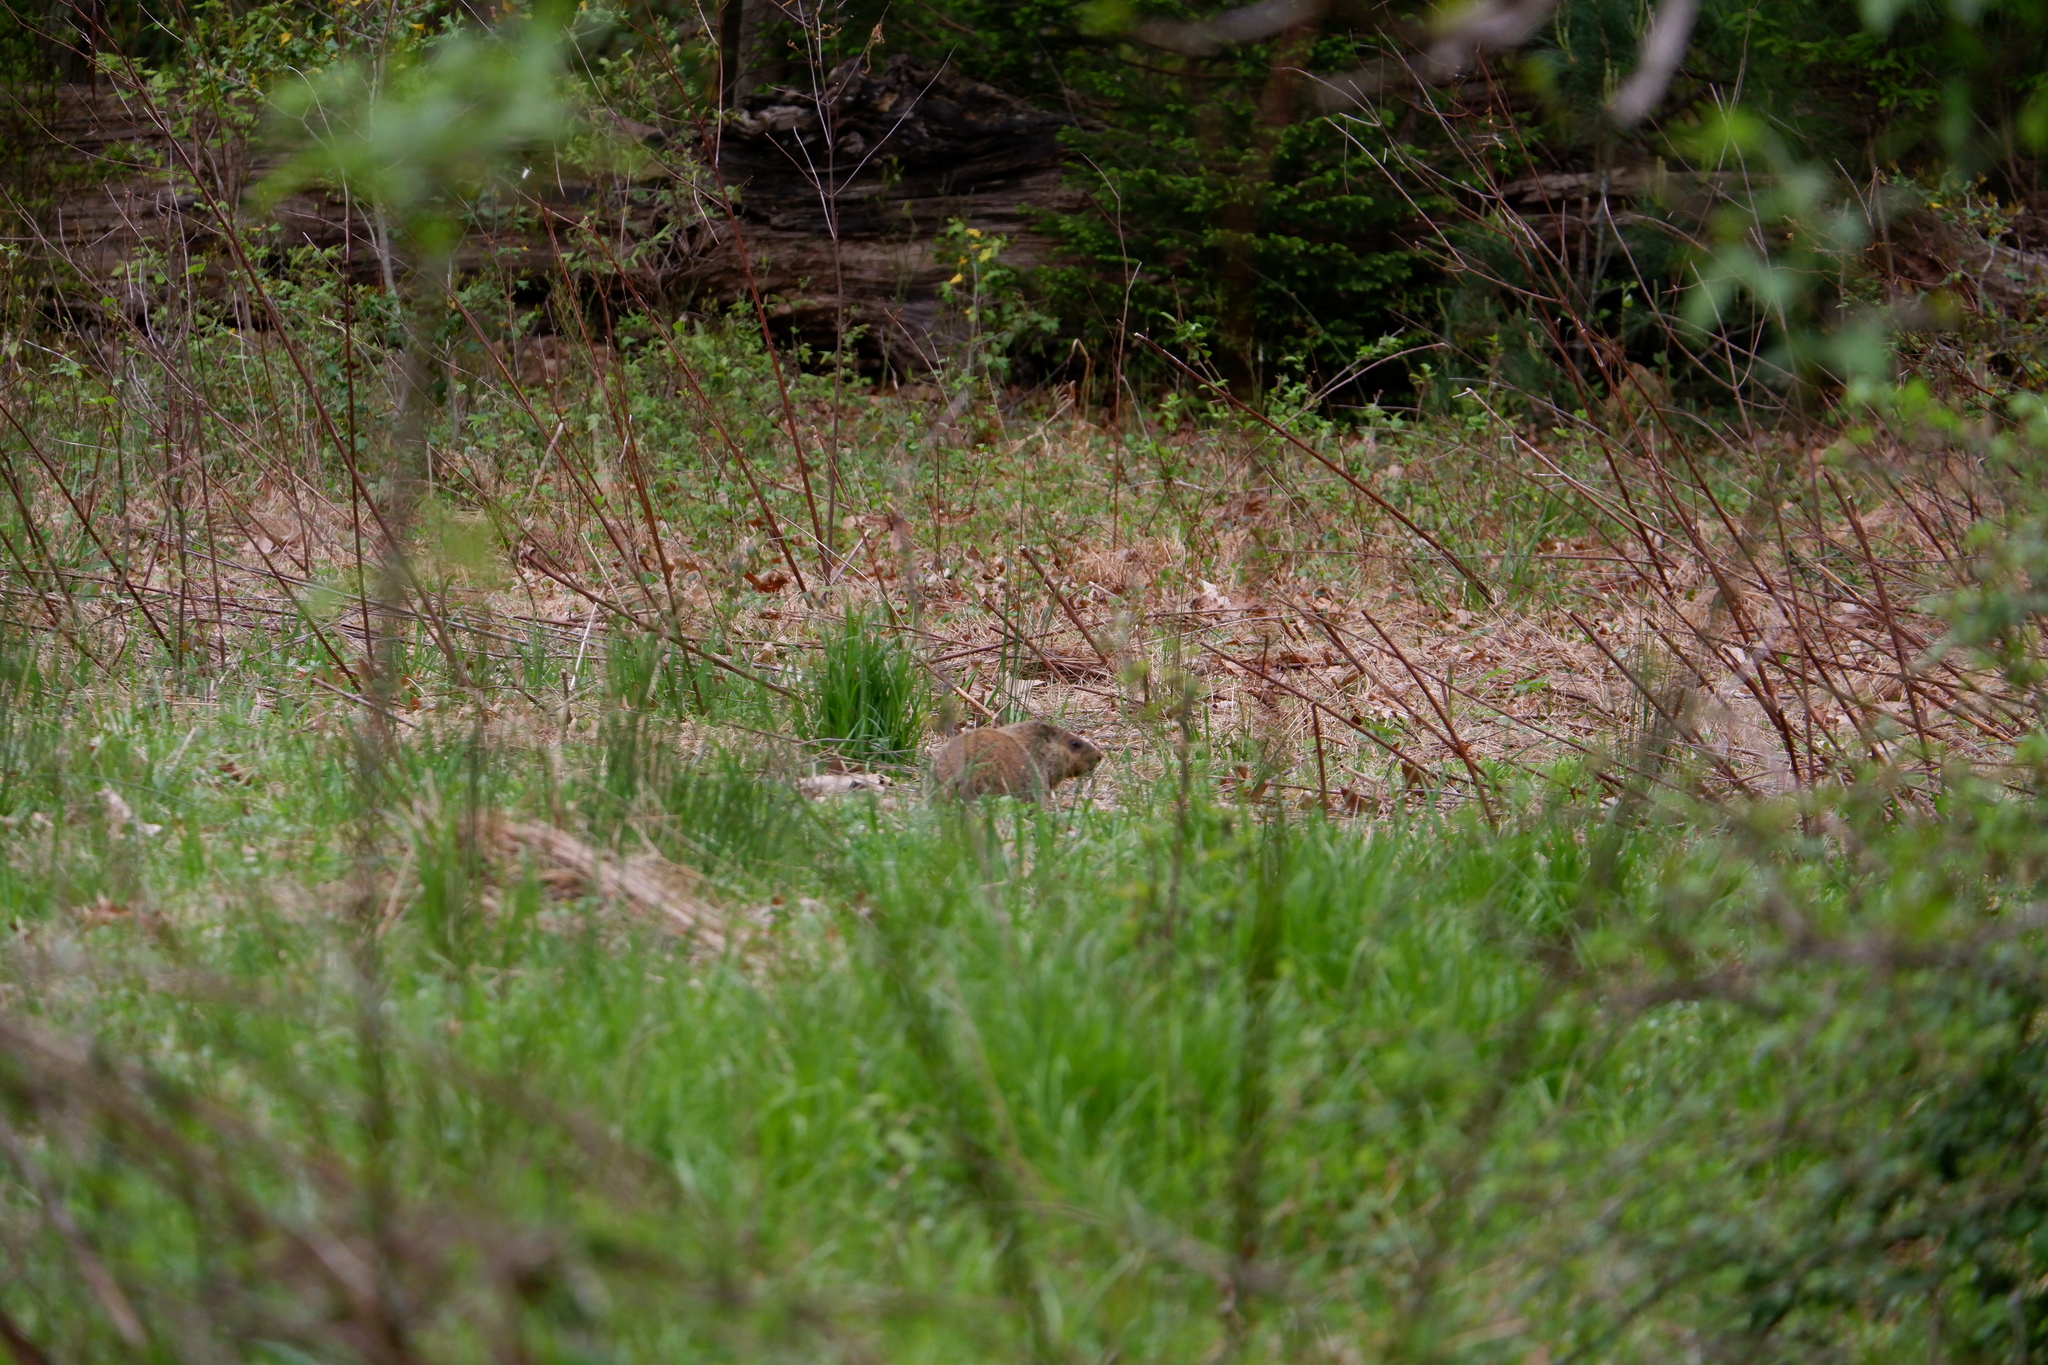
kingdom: Animalia
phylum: Chordata
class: Mammalia
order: Rodentia
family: Sciuridae
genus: Marmota
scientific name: Marmota monax
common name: Groundhog
